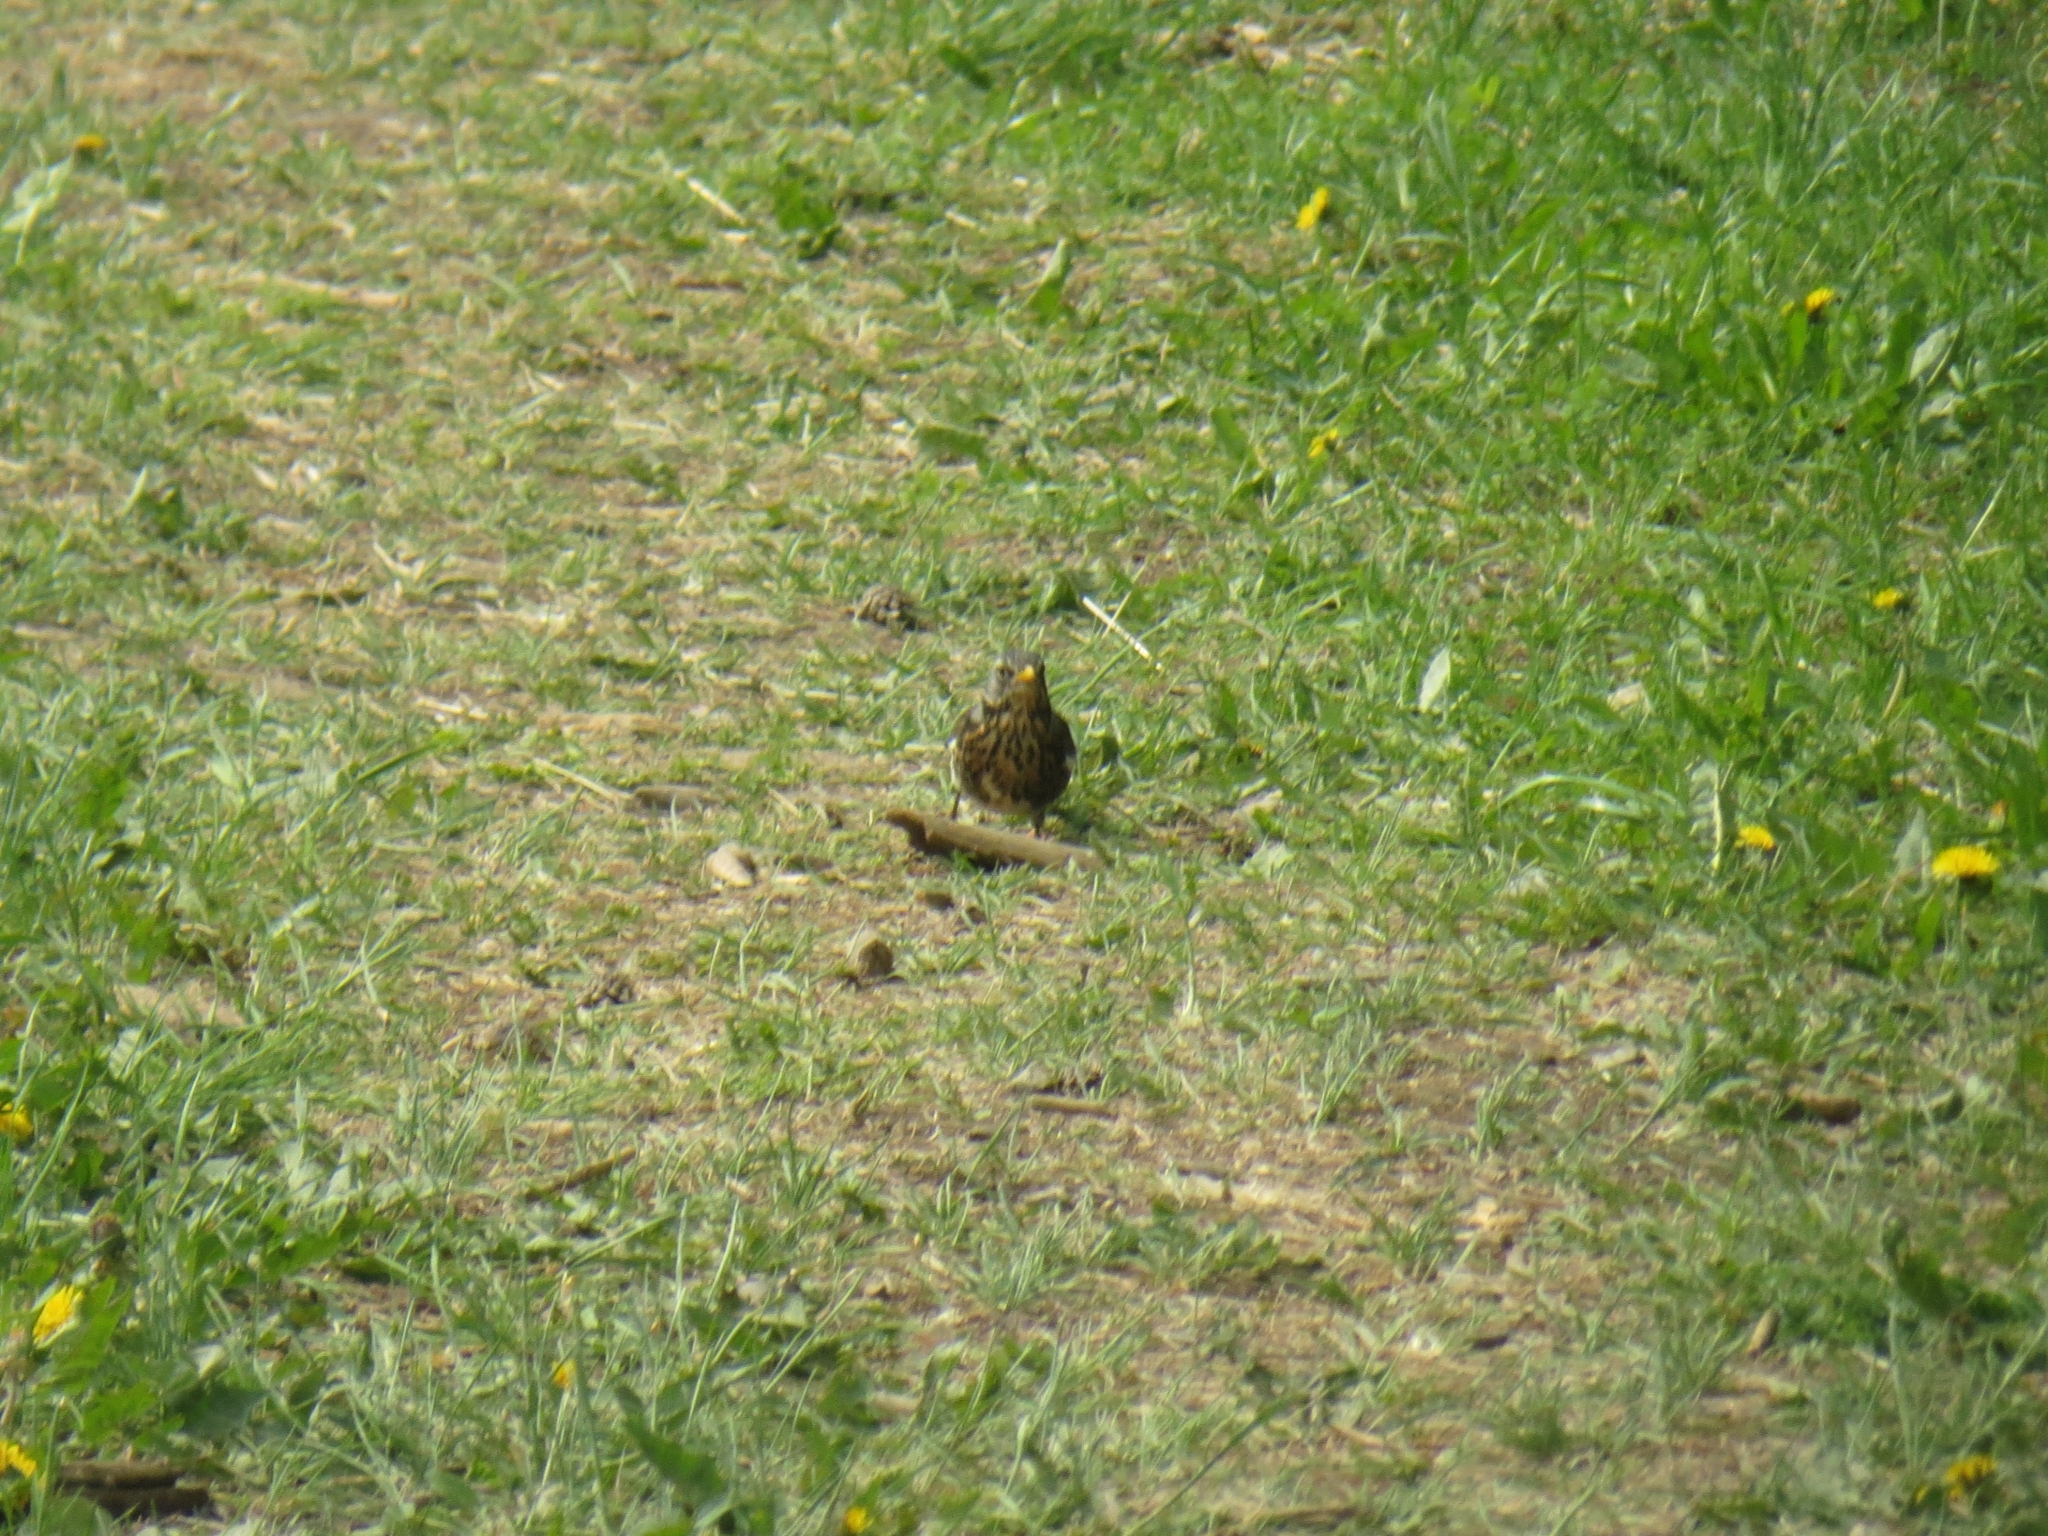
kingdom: Animalia
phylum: Chordata
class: Aves
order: Passeriformes
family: Turdidae
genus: Turdus
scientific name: Turdus pilaris
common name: Fieldfare
